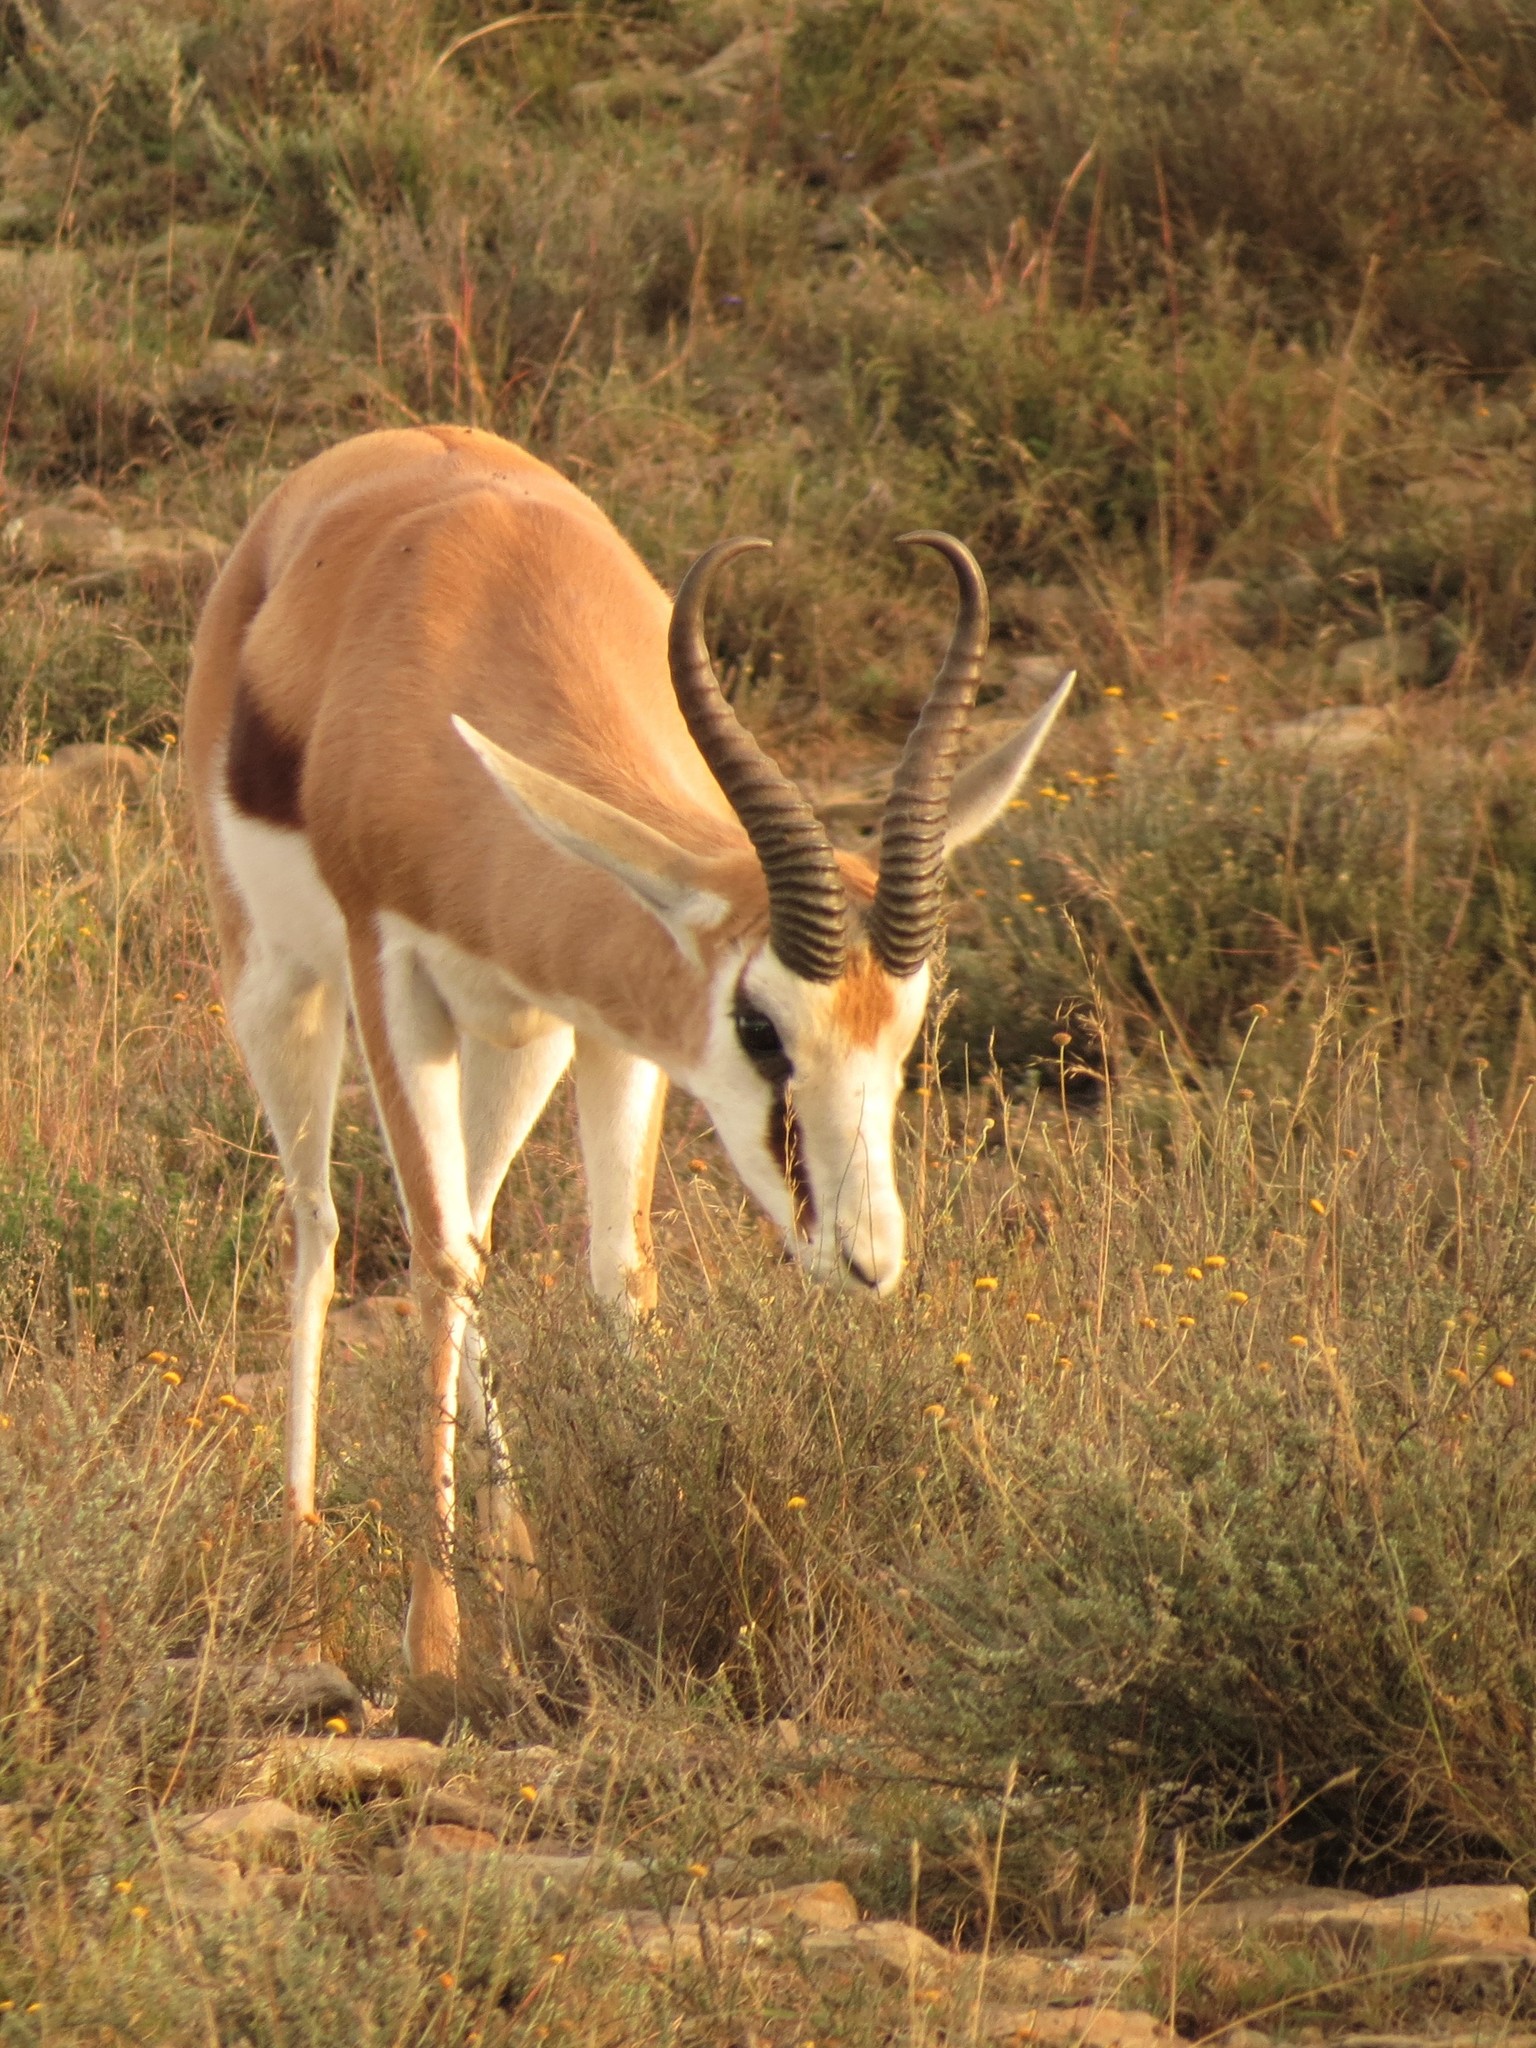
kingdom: Animalia
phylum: Chordata
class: Mammalia
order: Artiodactyla
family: Bovidae
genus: Antidorcas
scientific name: Antidorcas marsupialis
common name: Springbok
